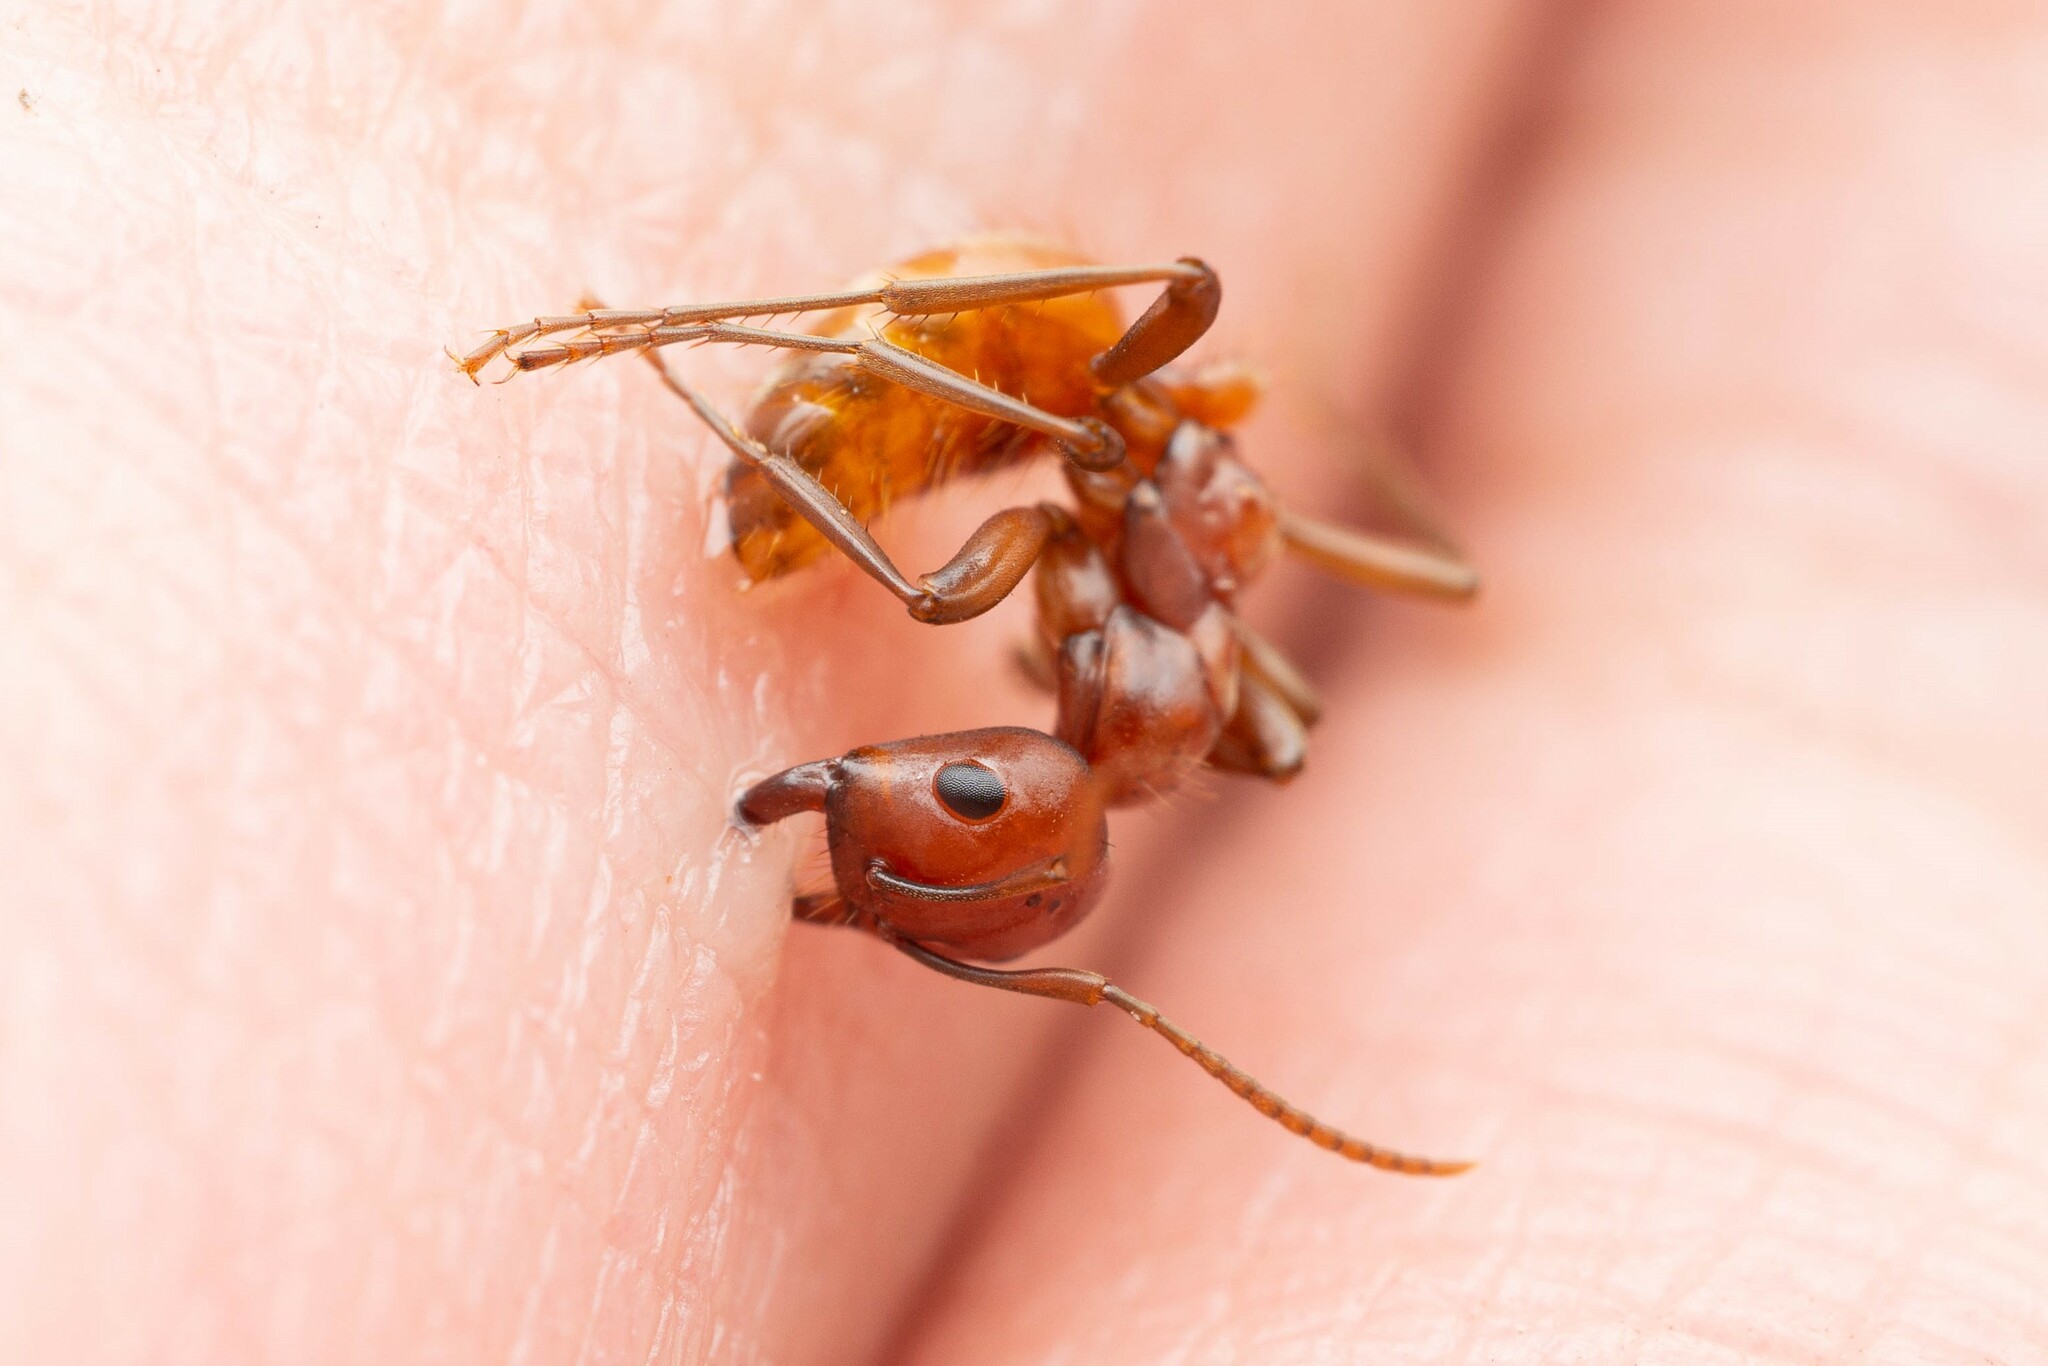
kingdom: Animalia
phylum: Arthropoda
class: Insecta
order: Hymenoptera
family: Formicidae
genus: Polyergus
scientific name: Polyergus topoffi
